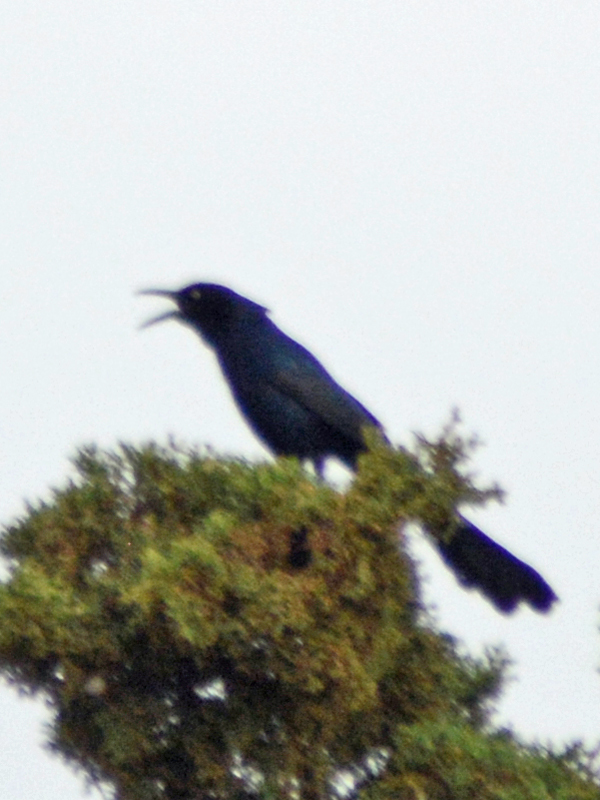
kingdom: Animalia
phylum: Chordata
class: Aves
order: Passeriformes
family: Icteridae
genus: Quiscalus
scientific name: Quiscalus mexicanus
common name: Great-tailed grackle
